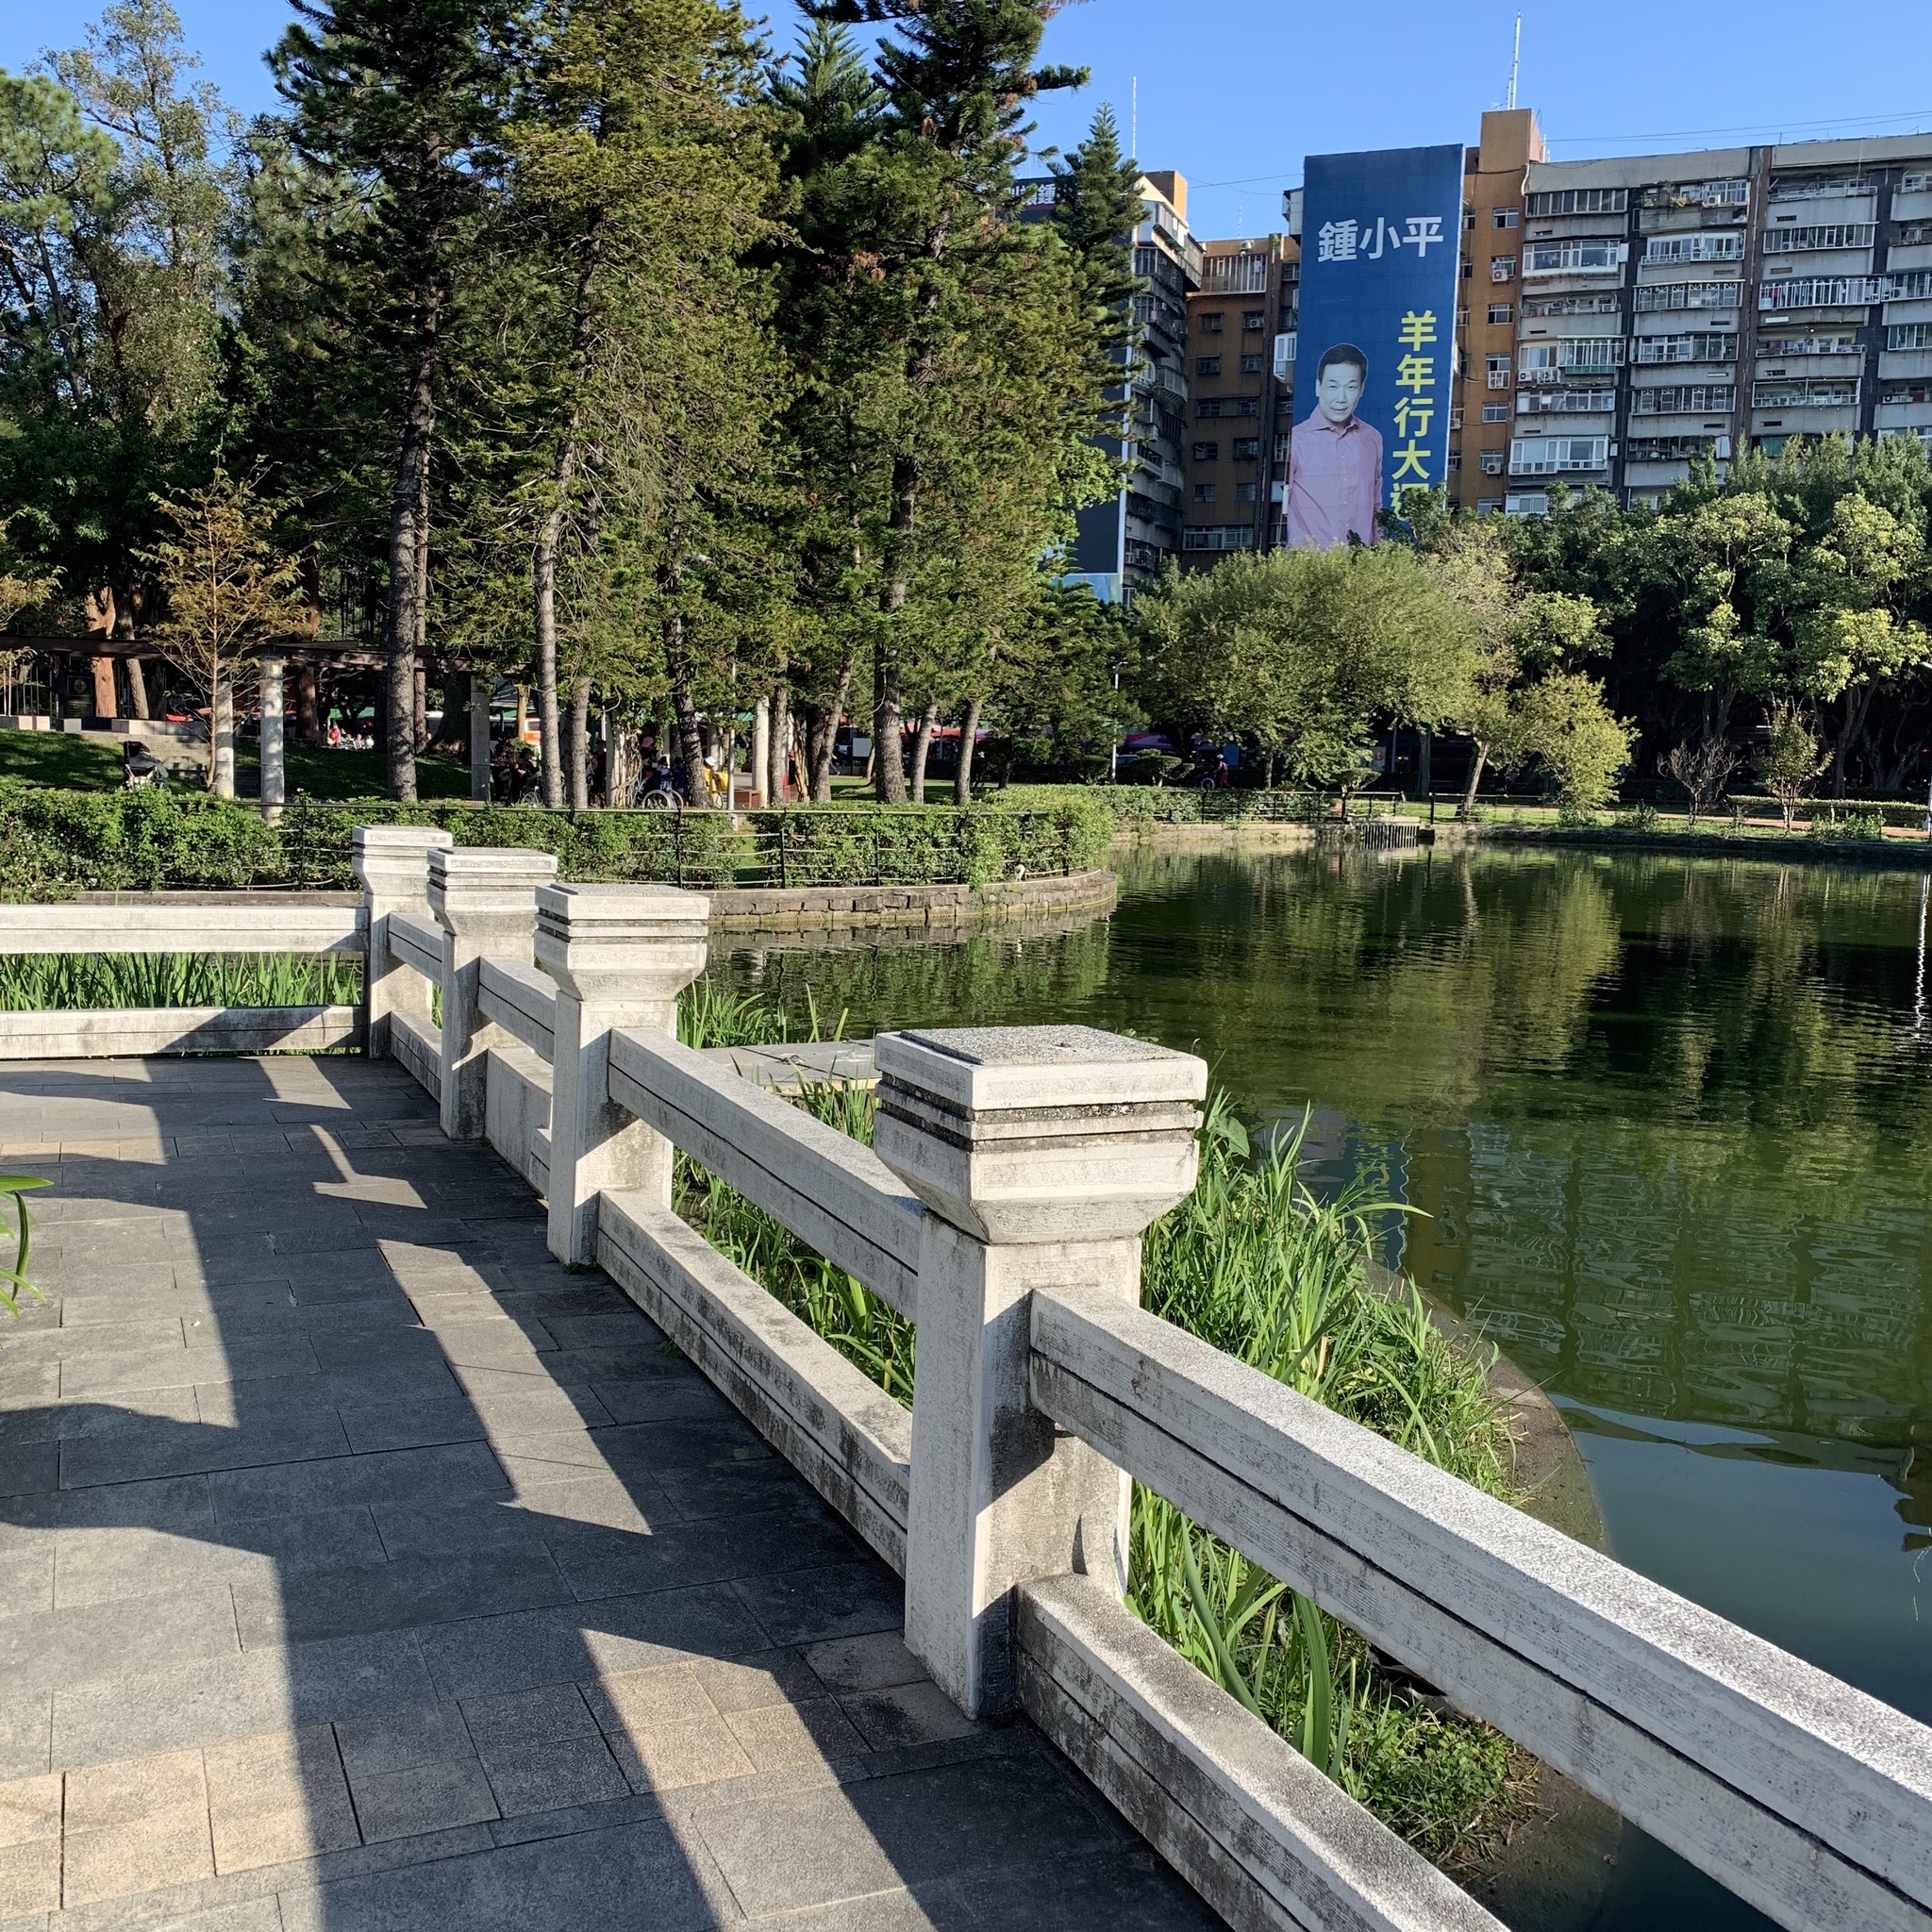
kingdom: Animalia
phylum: Chordata
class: Aves
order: Pelecaniformes
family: Ardeidae
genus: Nycticorax
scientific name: Nycticorax nycticorax
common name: Black-crowned night heron
